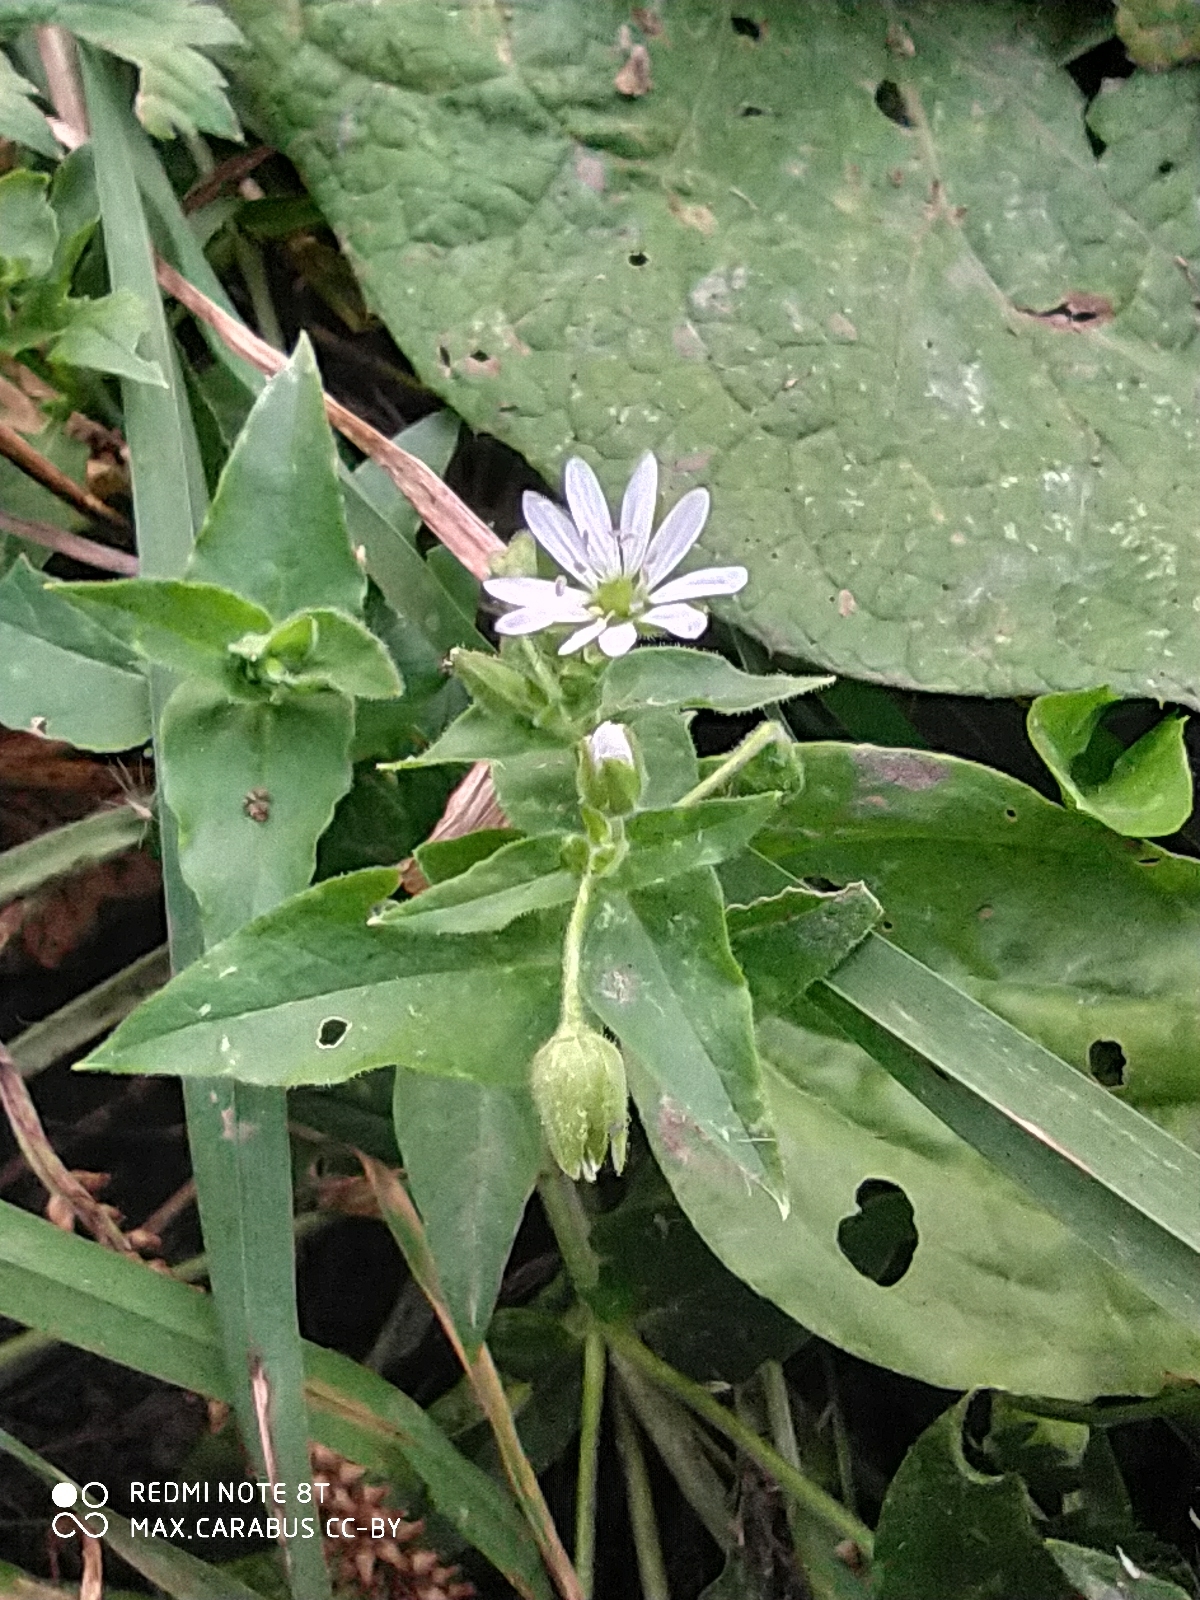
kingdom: Plantae
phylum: Tracheophyta
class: Magnoliopsida
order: Caryophyllales
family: Caryophyllaceae
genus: Stellaria
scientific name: Stellaria aquatica
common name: Water chickweed
